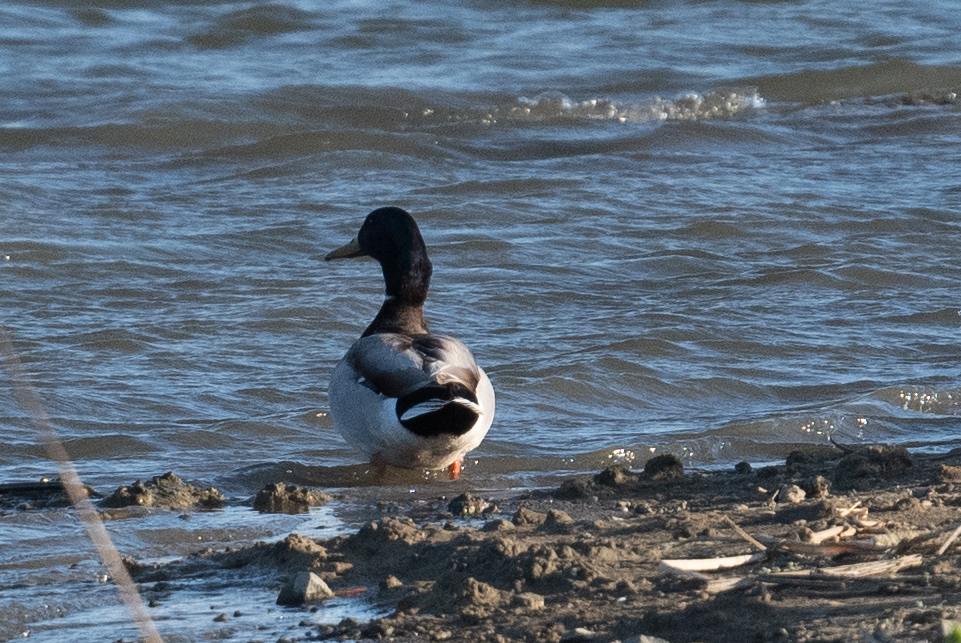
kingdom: Animalia
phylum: Chordata
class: Aves
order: Anseriformes
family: Anatidae
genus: Anas
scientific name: Anas platyrhynchos
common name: Mallard
